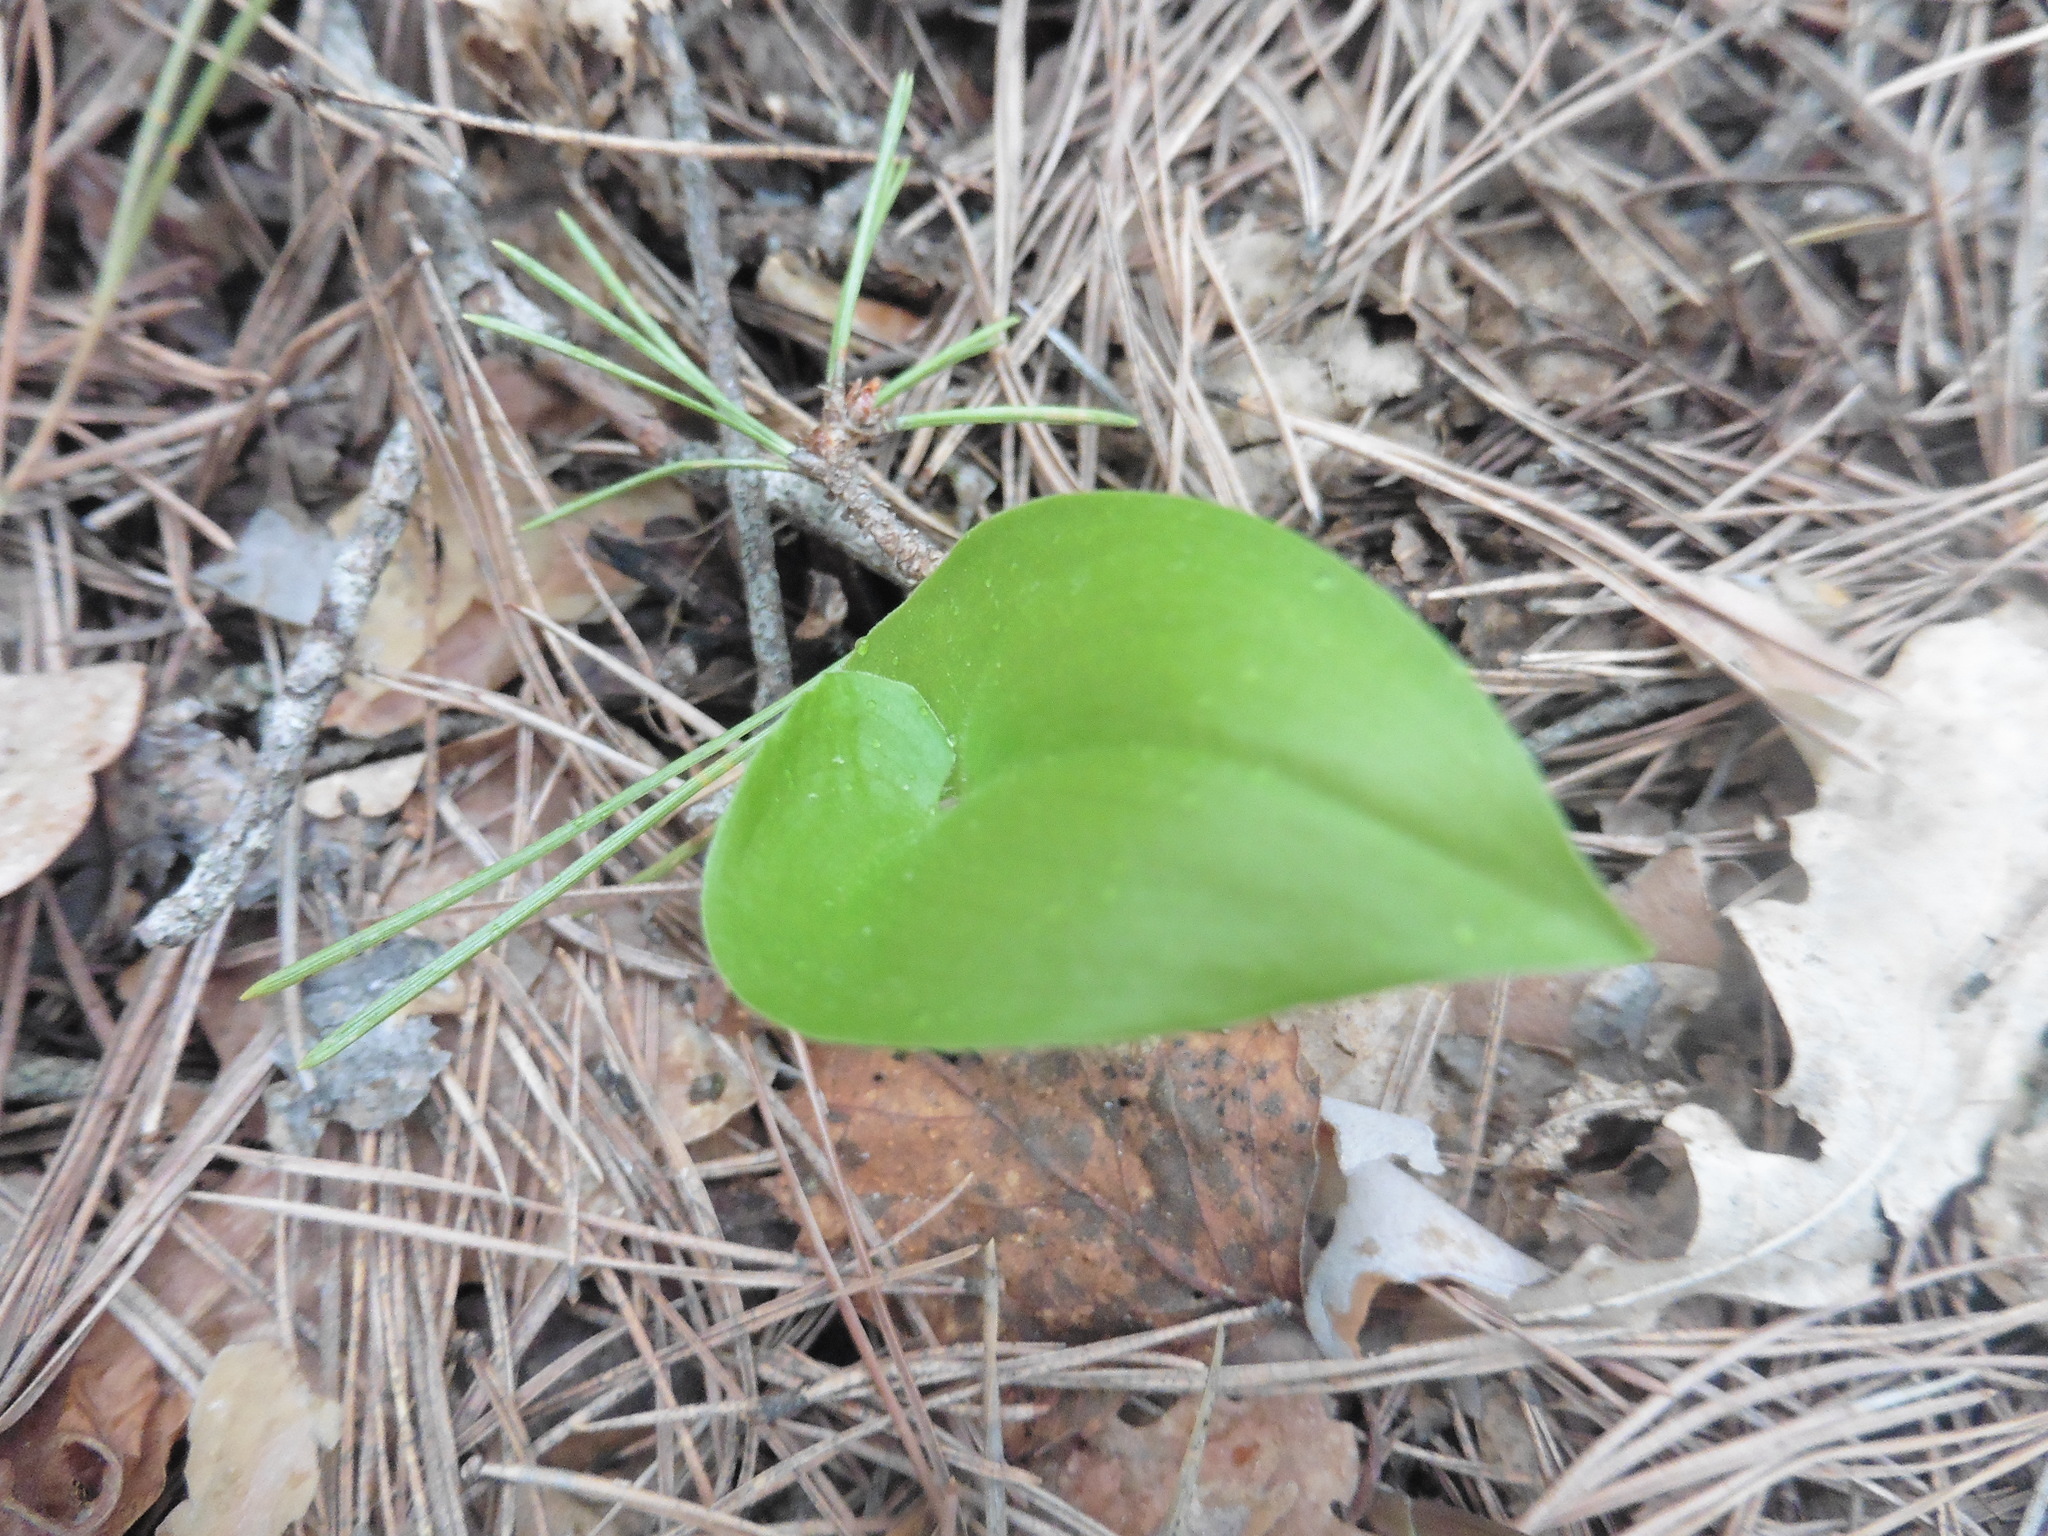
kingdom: Plantae
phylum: Tracheophyta
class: Liliopsida
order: Asparagales
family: Asparagaceae
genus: Maianthemum
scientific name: Maianthemum bifolium
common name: May lily
